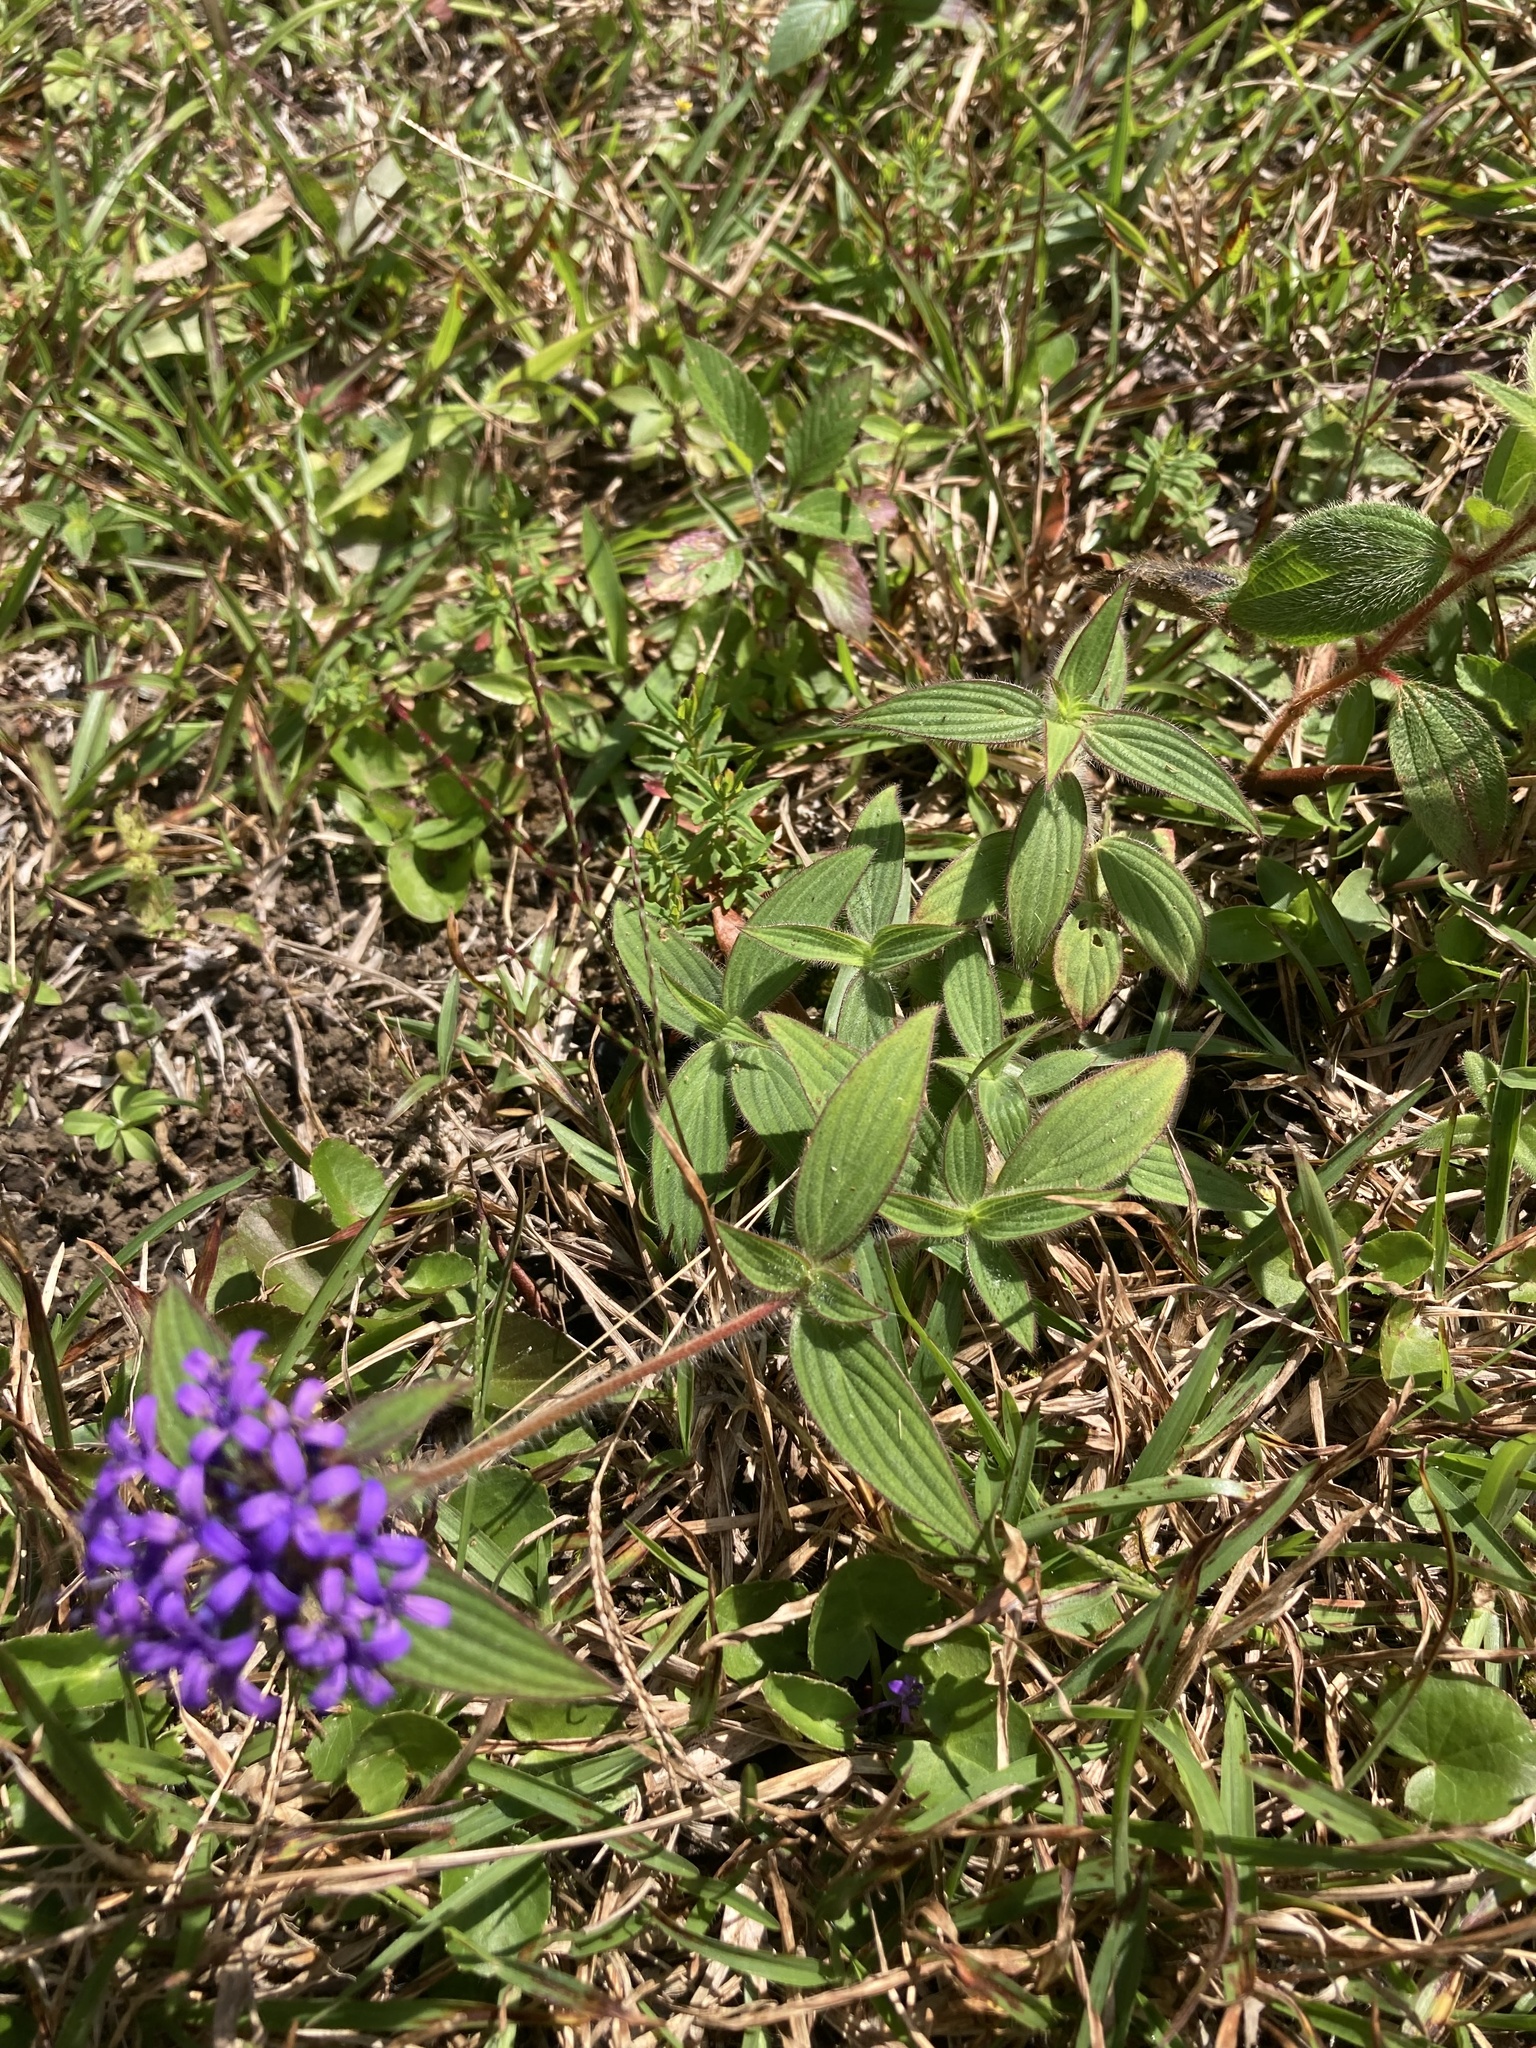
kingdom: Plantae
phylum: Tracheophyta
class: Magnoliopsida
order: Gentianales
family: Rubiaceae
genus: Crusea
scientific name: Crusea hispida
